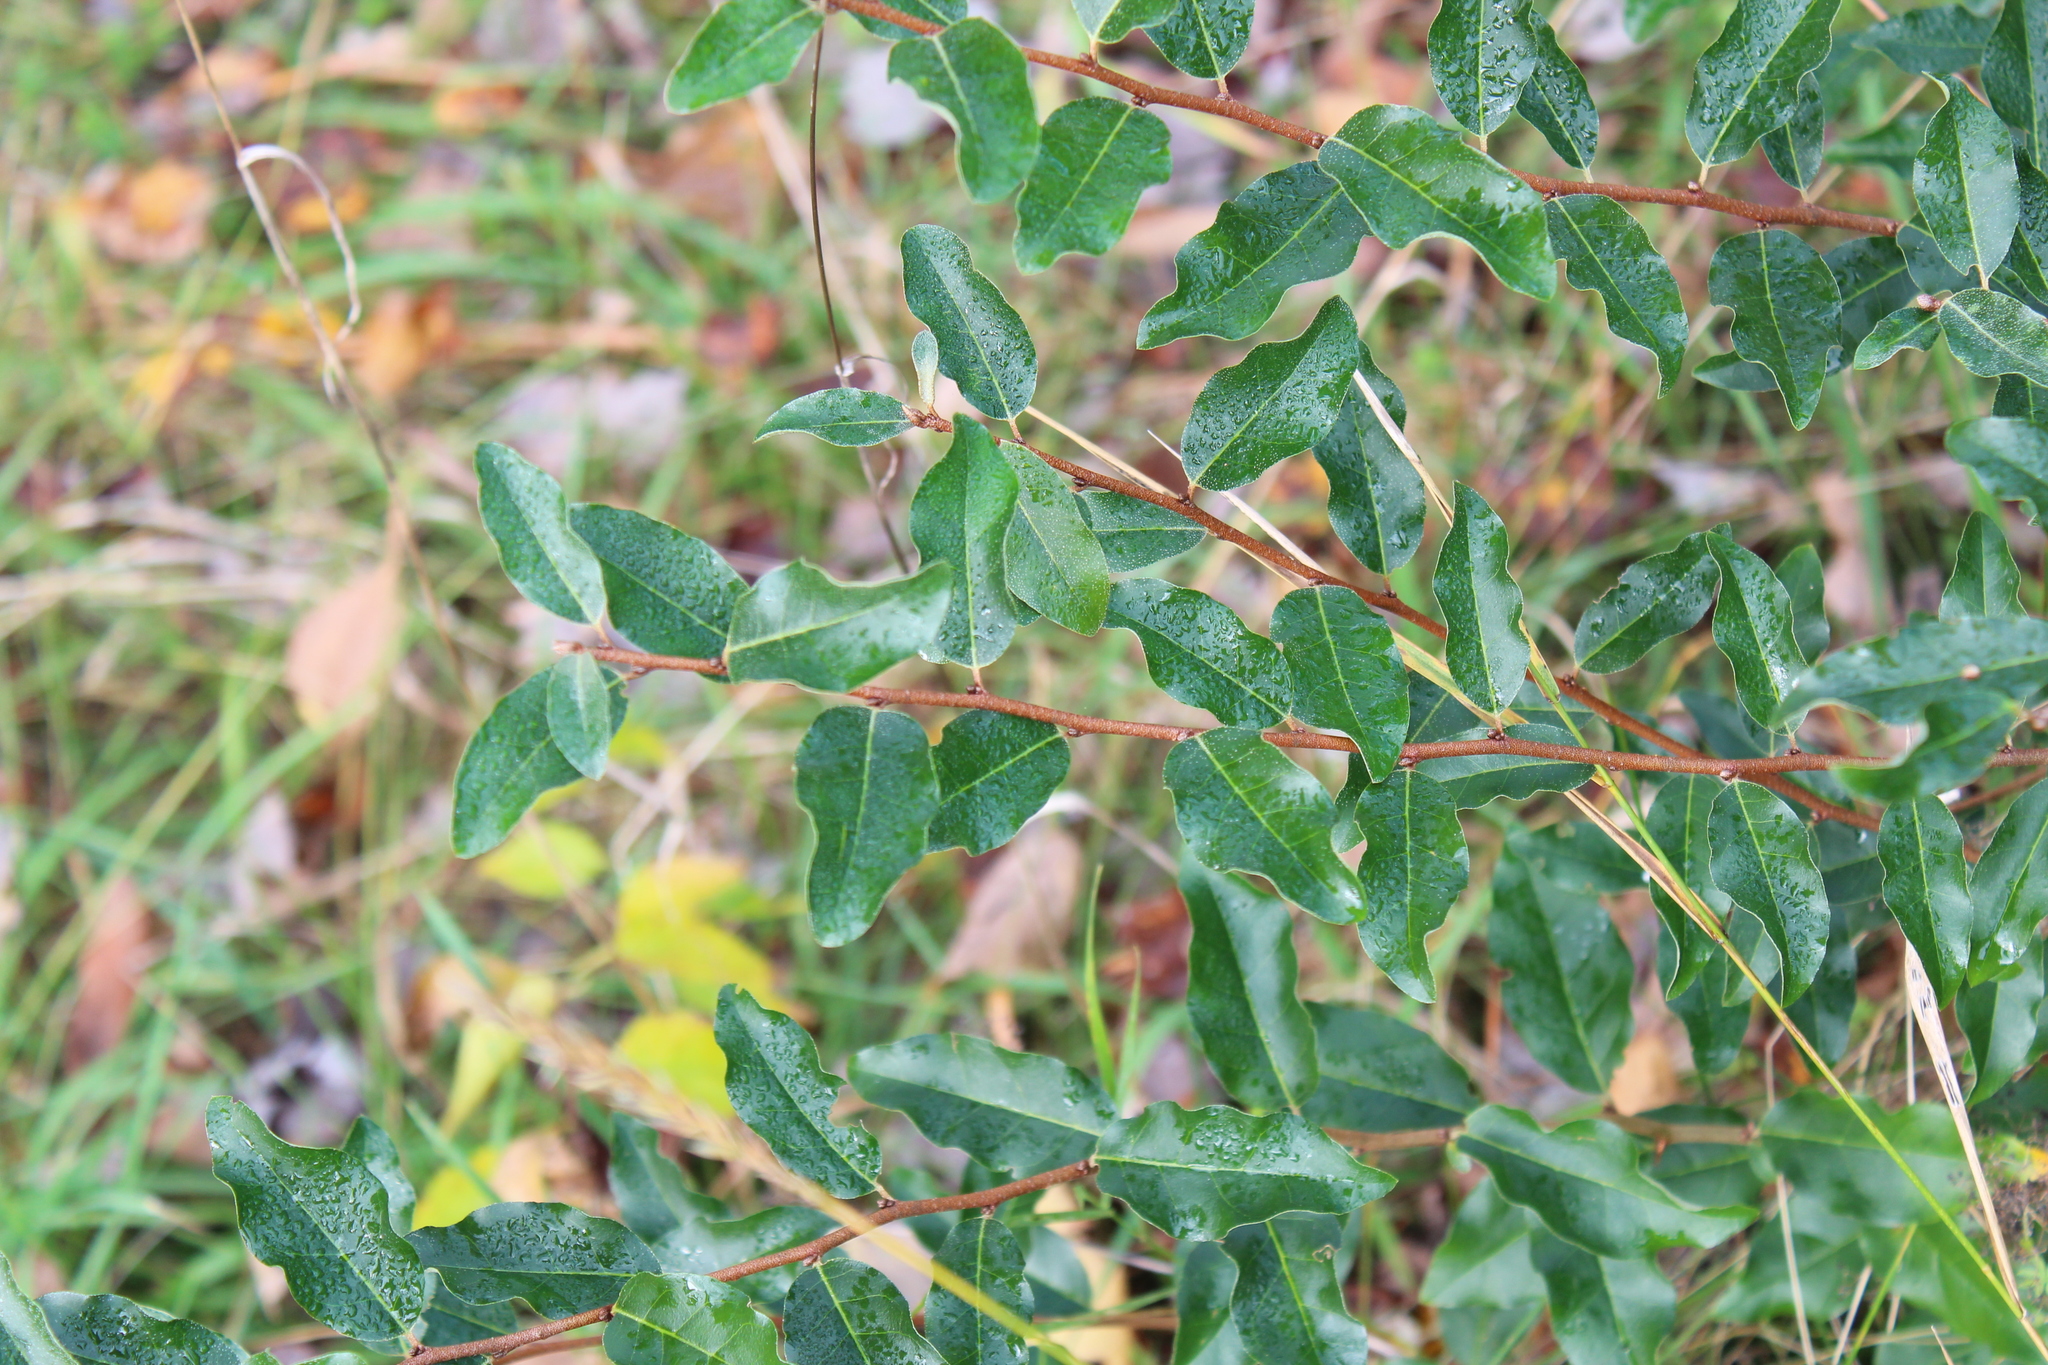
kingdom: Plantae
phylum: Tracheophyta
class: Magnoliopsida
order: Rosales
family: Elaeagnaceae
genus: Elaeagnus
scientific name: Elaeagnus umbellata
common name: Autumn olive
